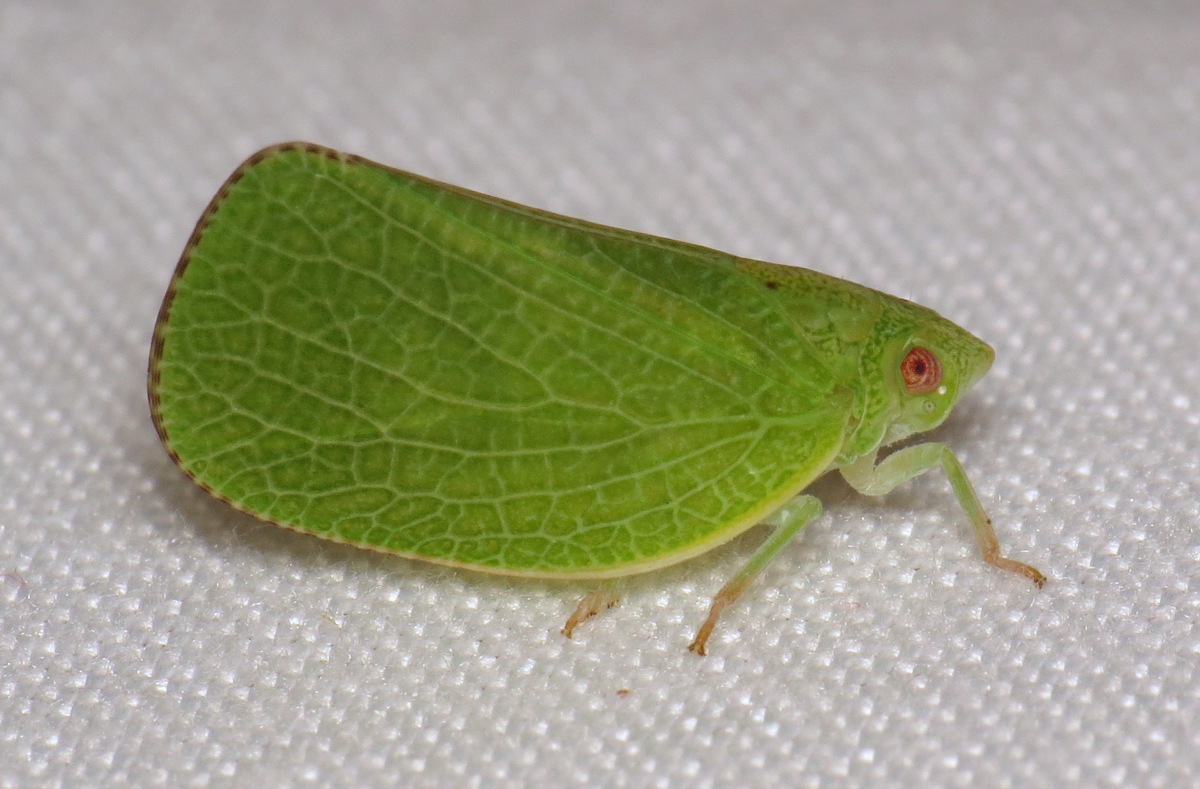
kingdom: Animalia
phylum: Arthropoda
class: Insecta
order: Hemiptera
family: Acanaloniidae
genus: Acanalonia
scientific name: Acanalonia conica
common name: Green cone-headed planthopper
